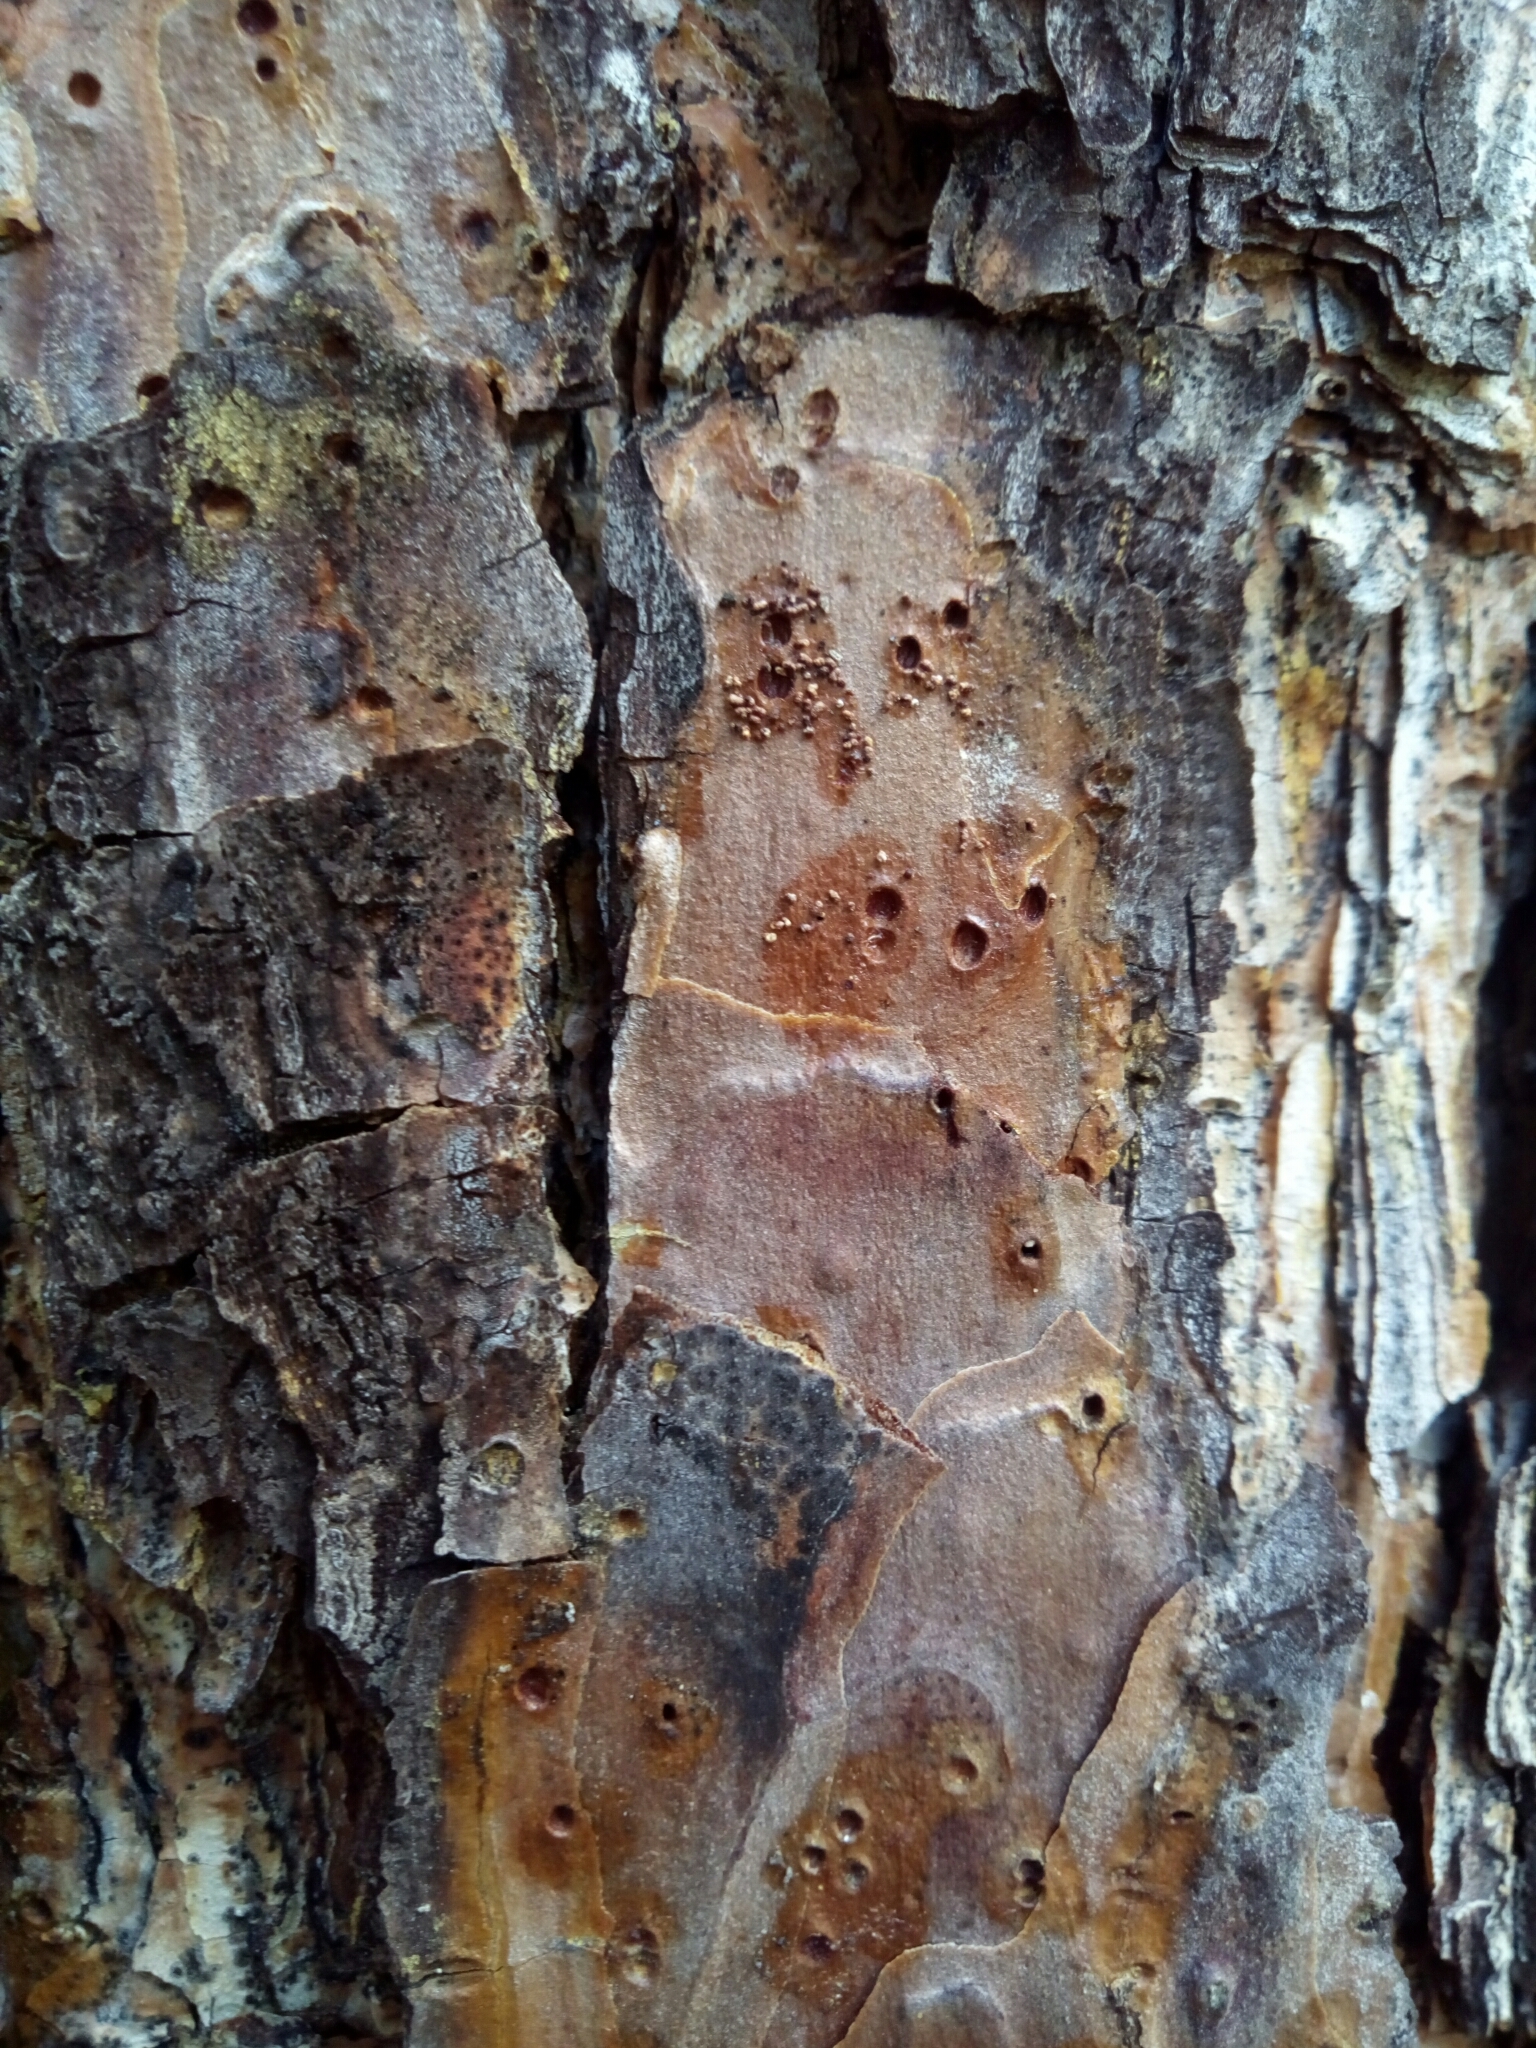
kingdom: Plantae
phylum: Tracheophyta
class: Pinopsida
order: Pinales
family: Pinaceae
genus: Pinus
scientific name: Pinus echinata
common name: Shortleaf pine
